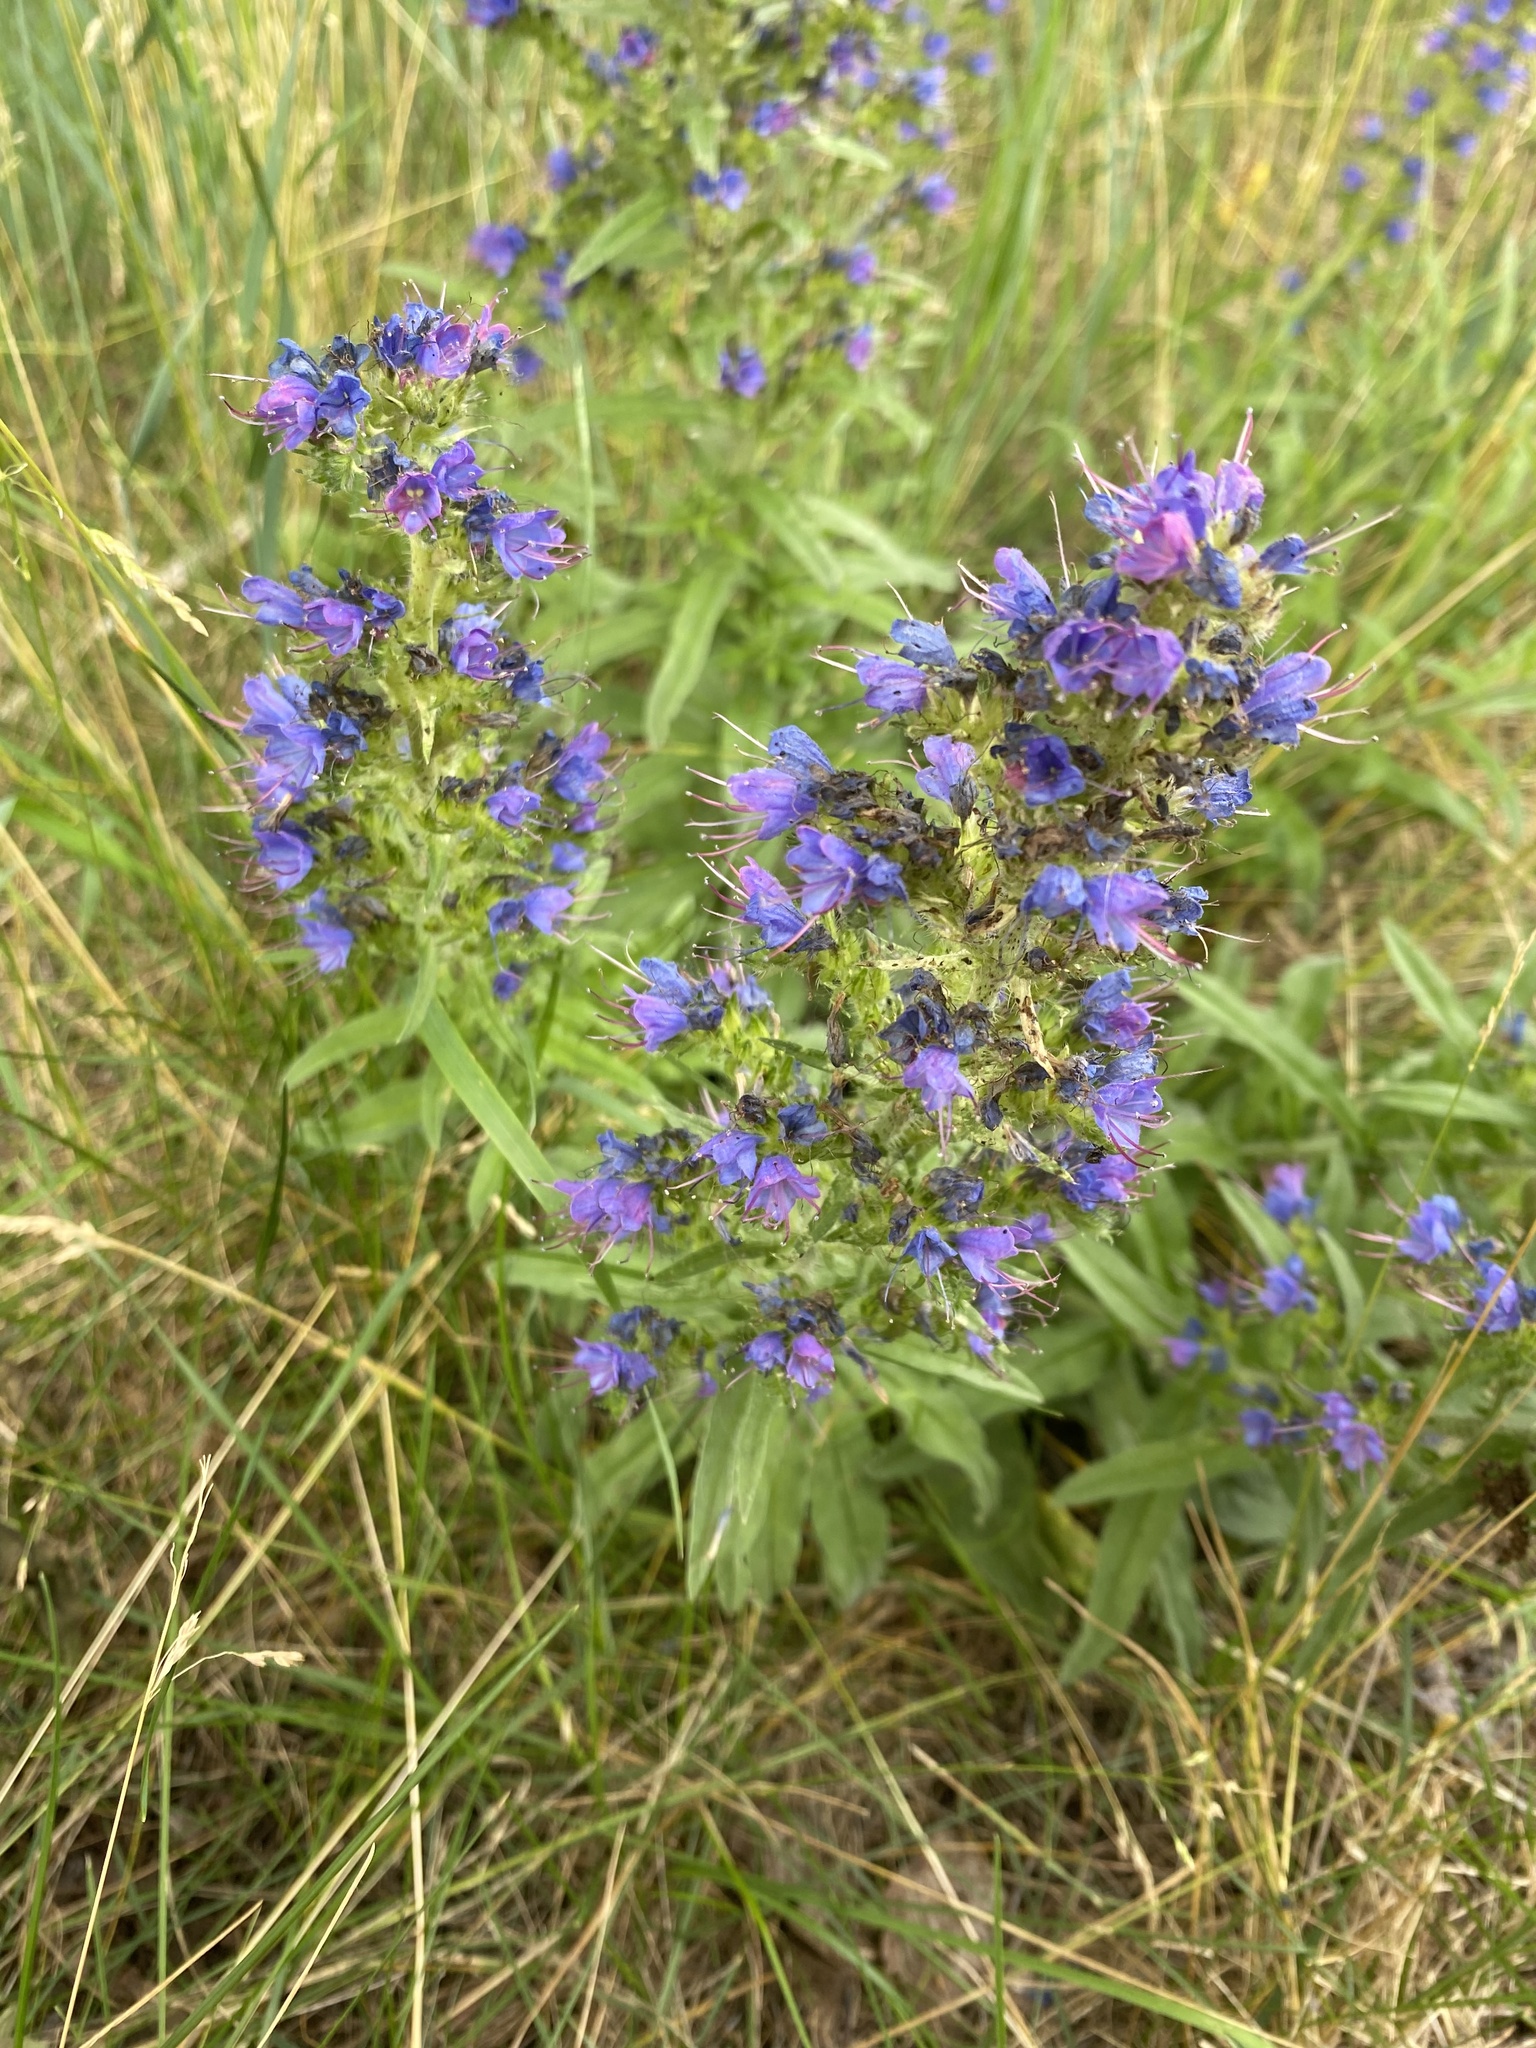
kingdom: Plantae
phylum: Tracheophyta
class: Magnoliopsida
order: Boraginales
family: Boraginaceae
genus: Echium
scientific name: Echium vulgare
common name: Common viper's bugloss
